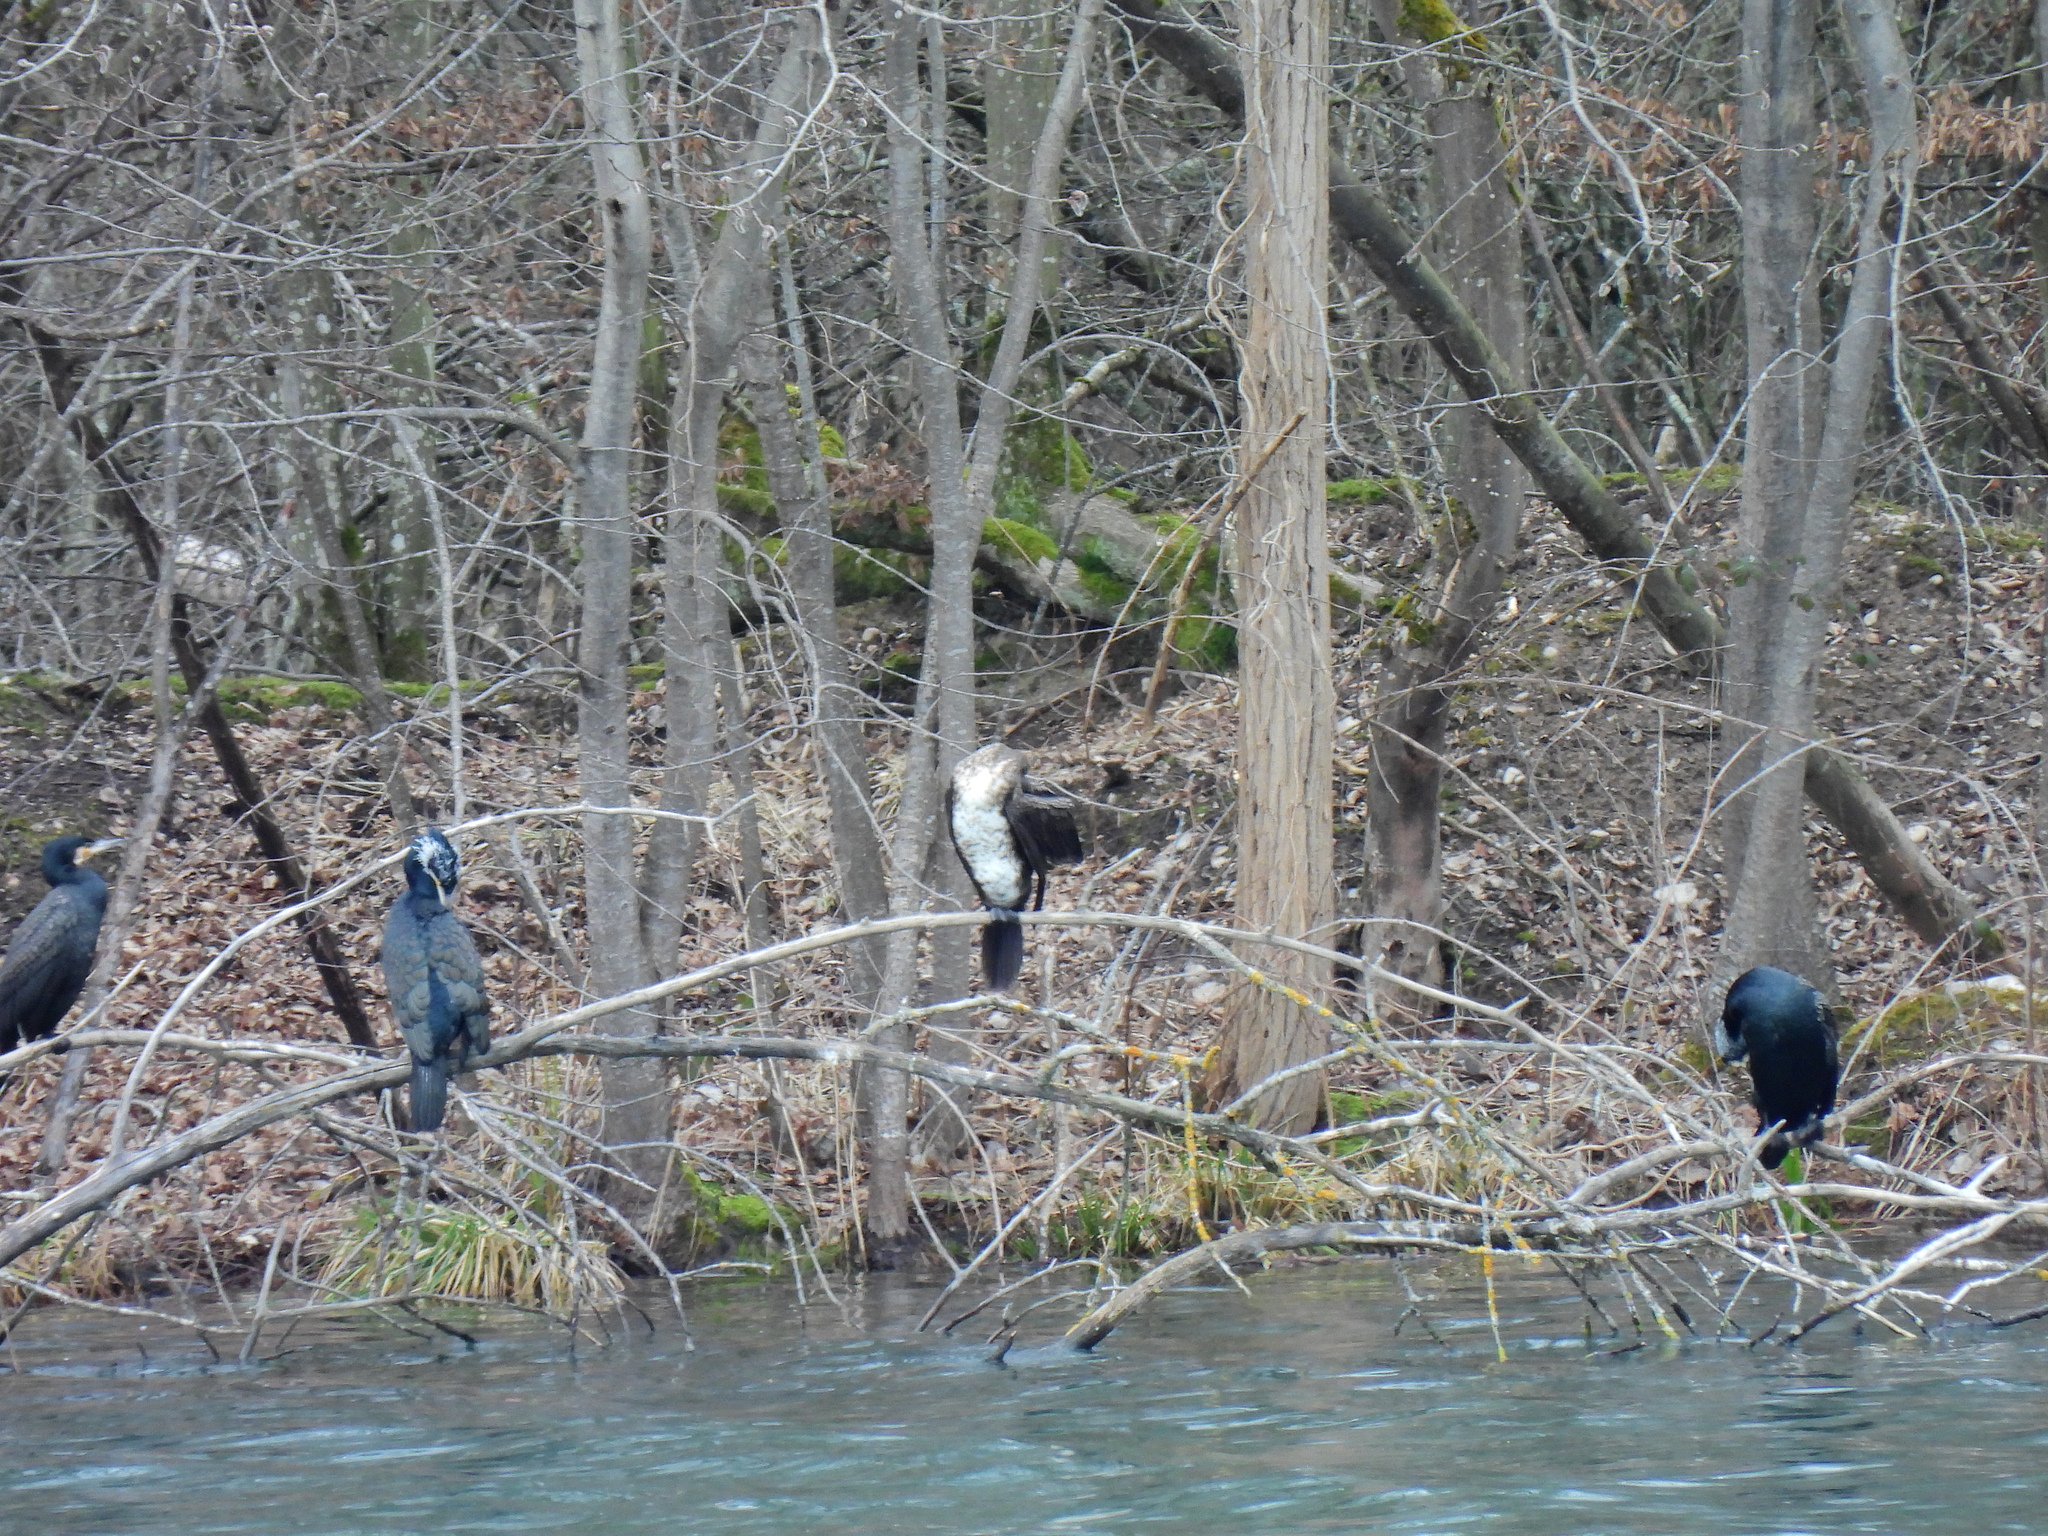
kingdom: Animalia
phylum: Chordata
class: Aves
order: Suliformes
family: Phalacrocoracidae
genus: Phalacrocorax
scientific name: Phalacrocorax carbo
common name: Great cormorant
